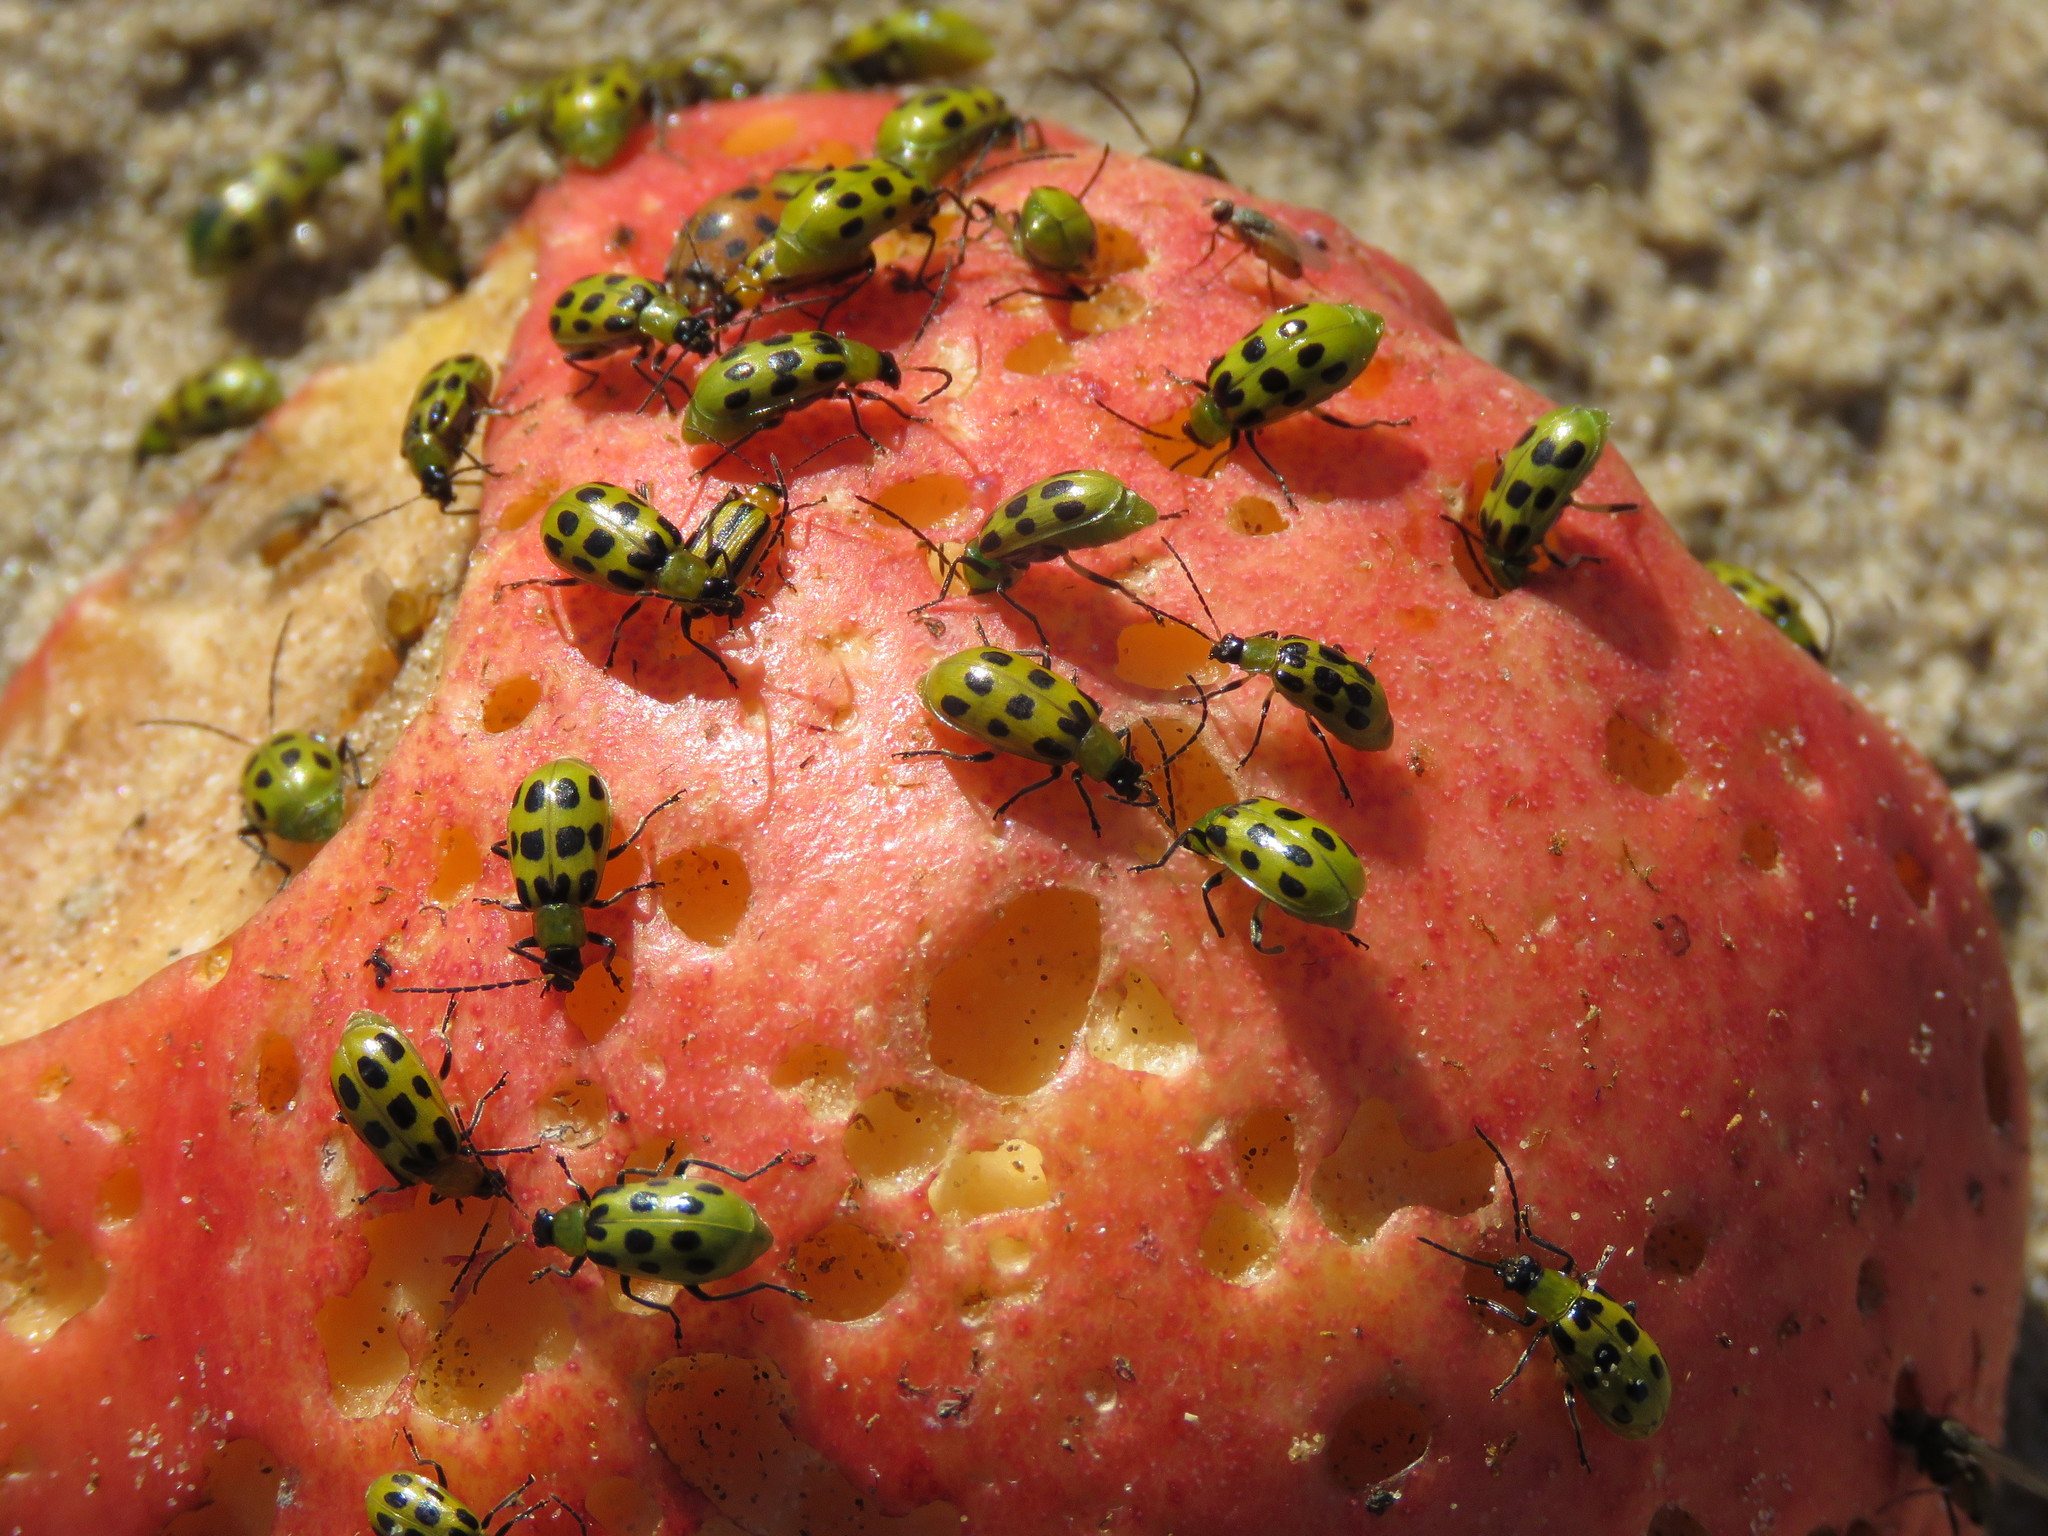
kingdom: Animalia
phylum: Arthropoda
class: Insecta
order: Coleoptera
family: Chrysomelidae
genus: Diabrotica
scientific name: Diabrotica undecimpunctata
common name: Spotted cucumber beetle
